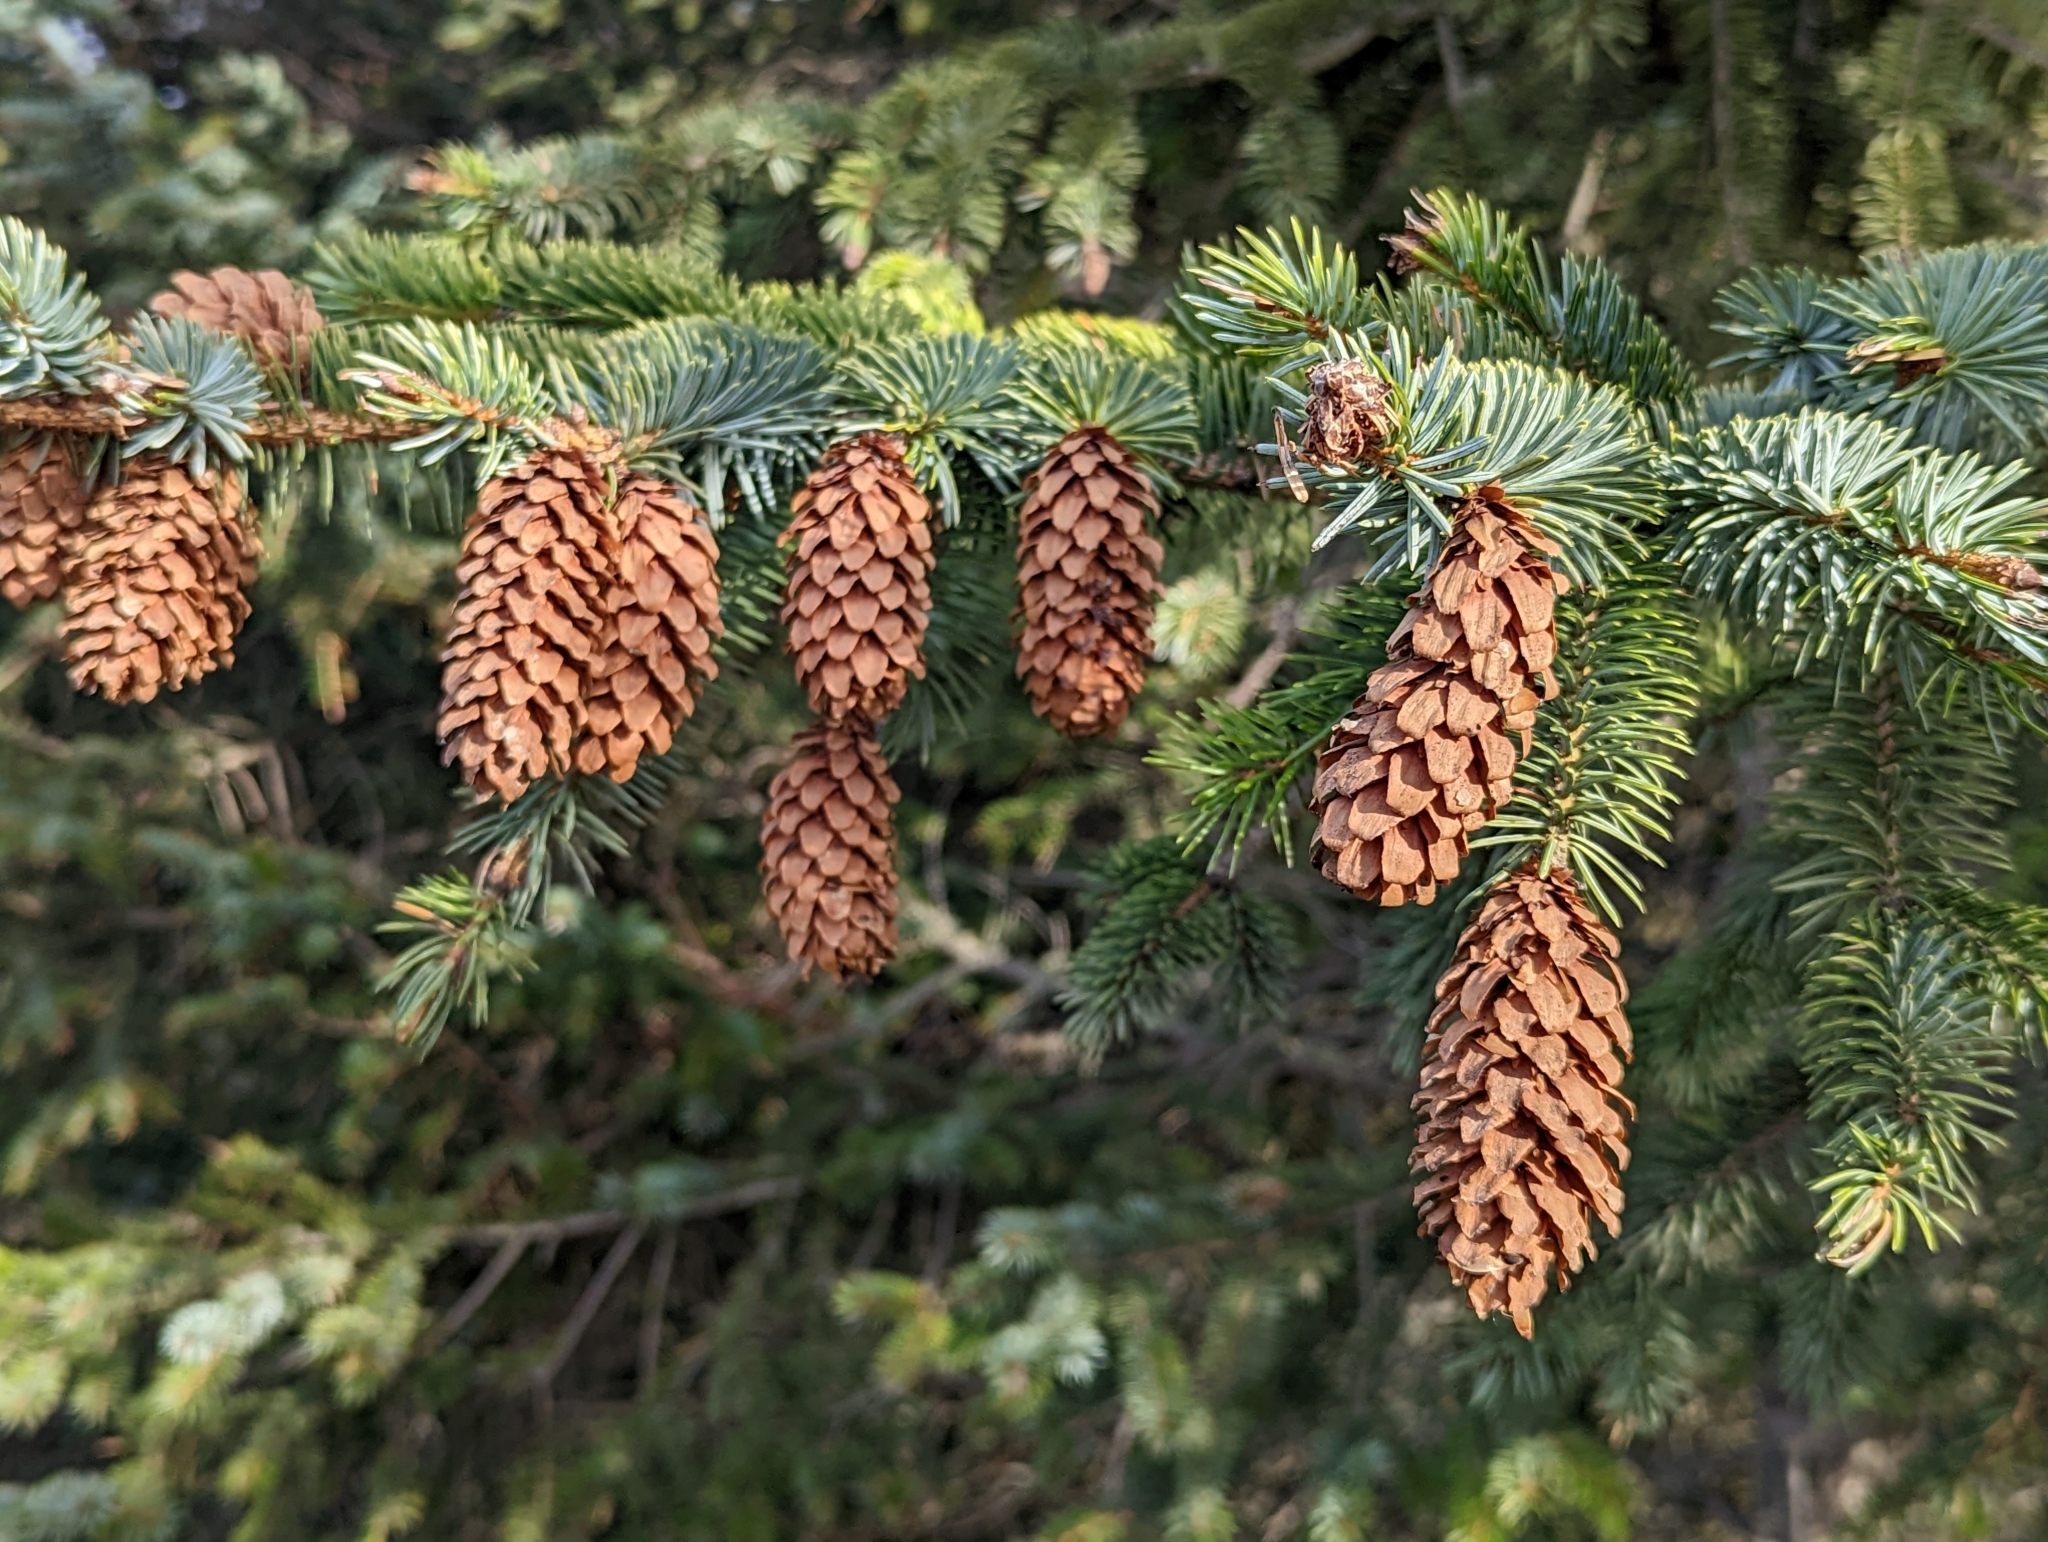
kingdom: Plantae
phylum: Tracheophyta
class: Pinopsida
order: Pinales
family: Pinaceae
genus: Picea
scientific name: Picea sitchensis
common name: Sitka spruce
